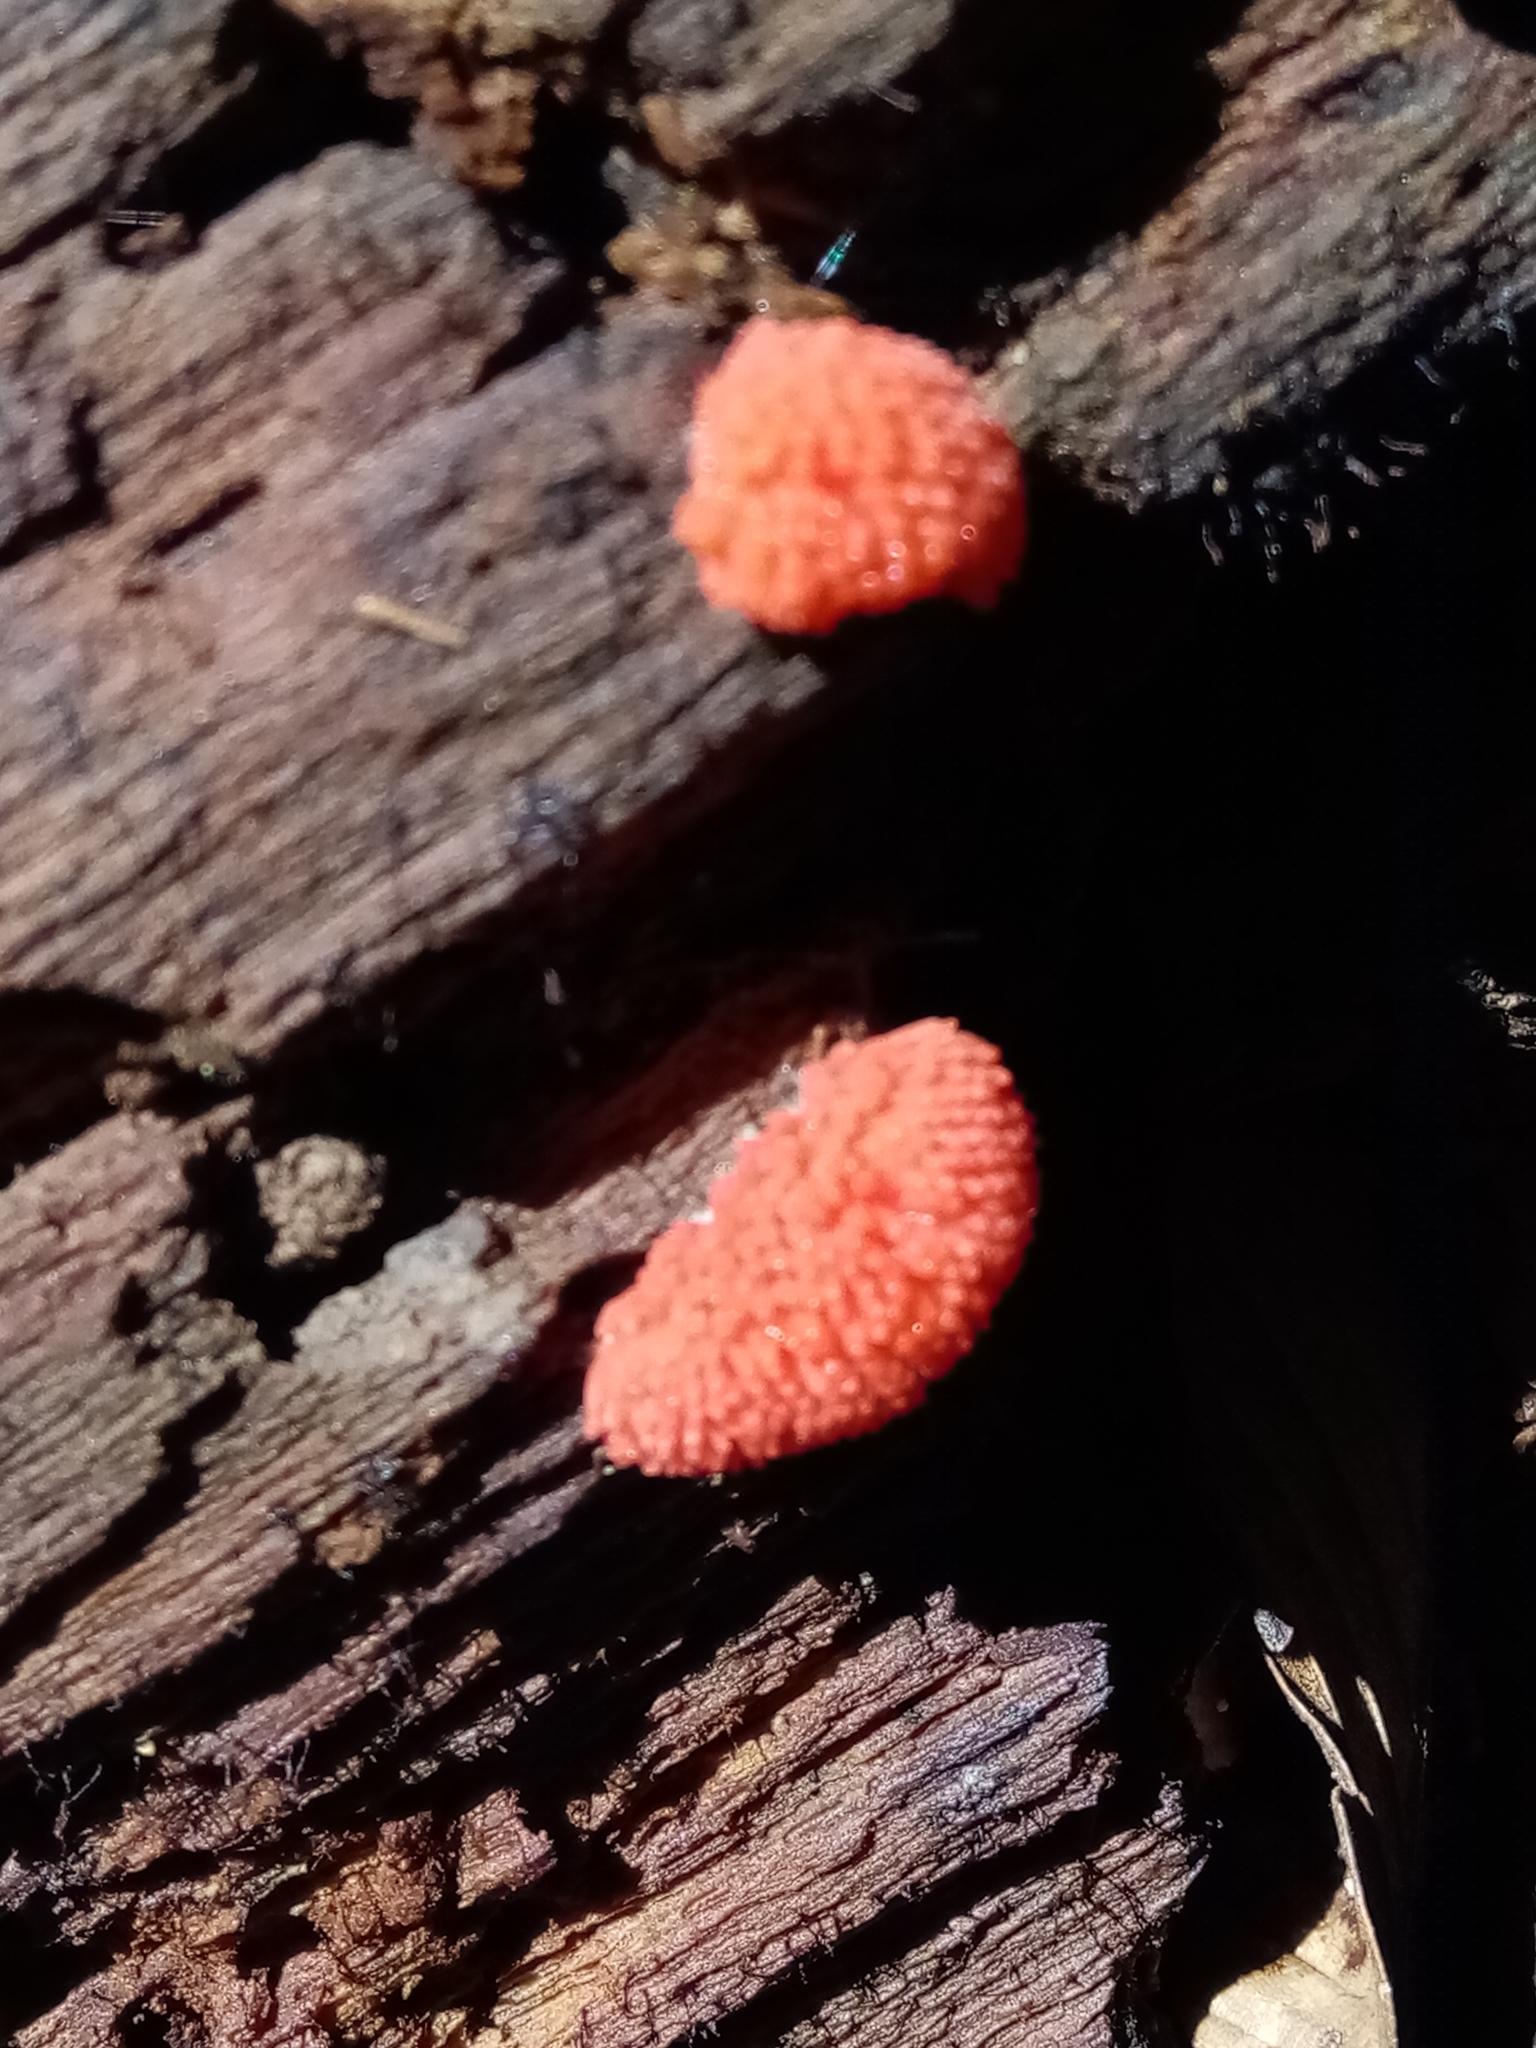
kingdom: Protozoa
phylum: Mycetozoa
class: Myxomycetes
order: Cribrariales
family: Tubiferaceae
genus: Tubifera
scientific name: Tubifera ferruginosa
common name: Red raspberry slime mold
